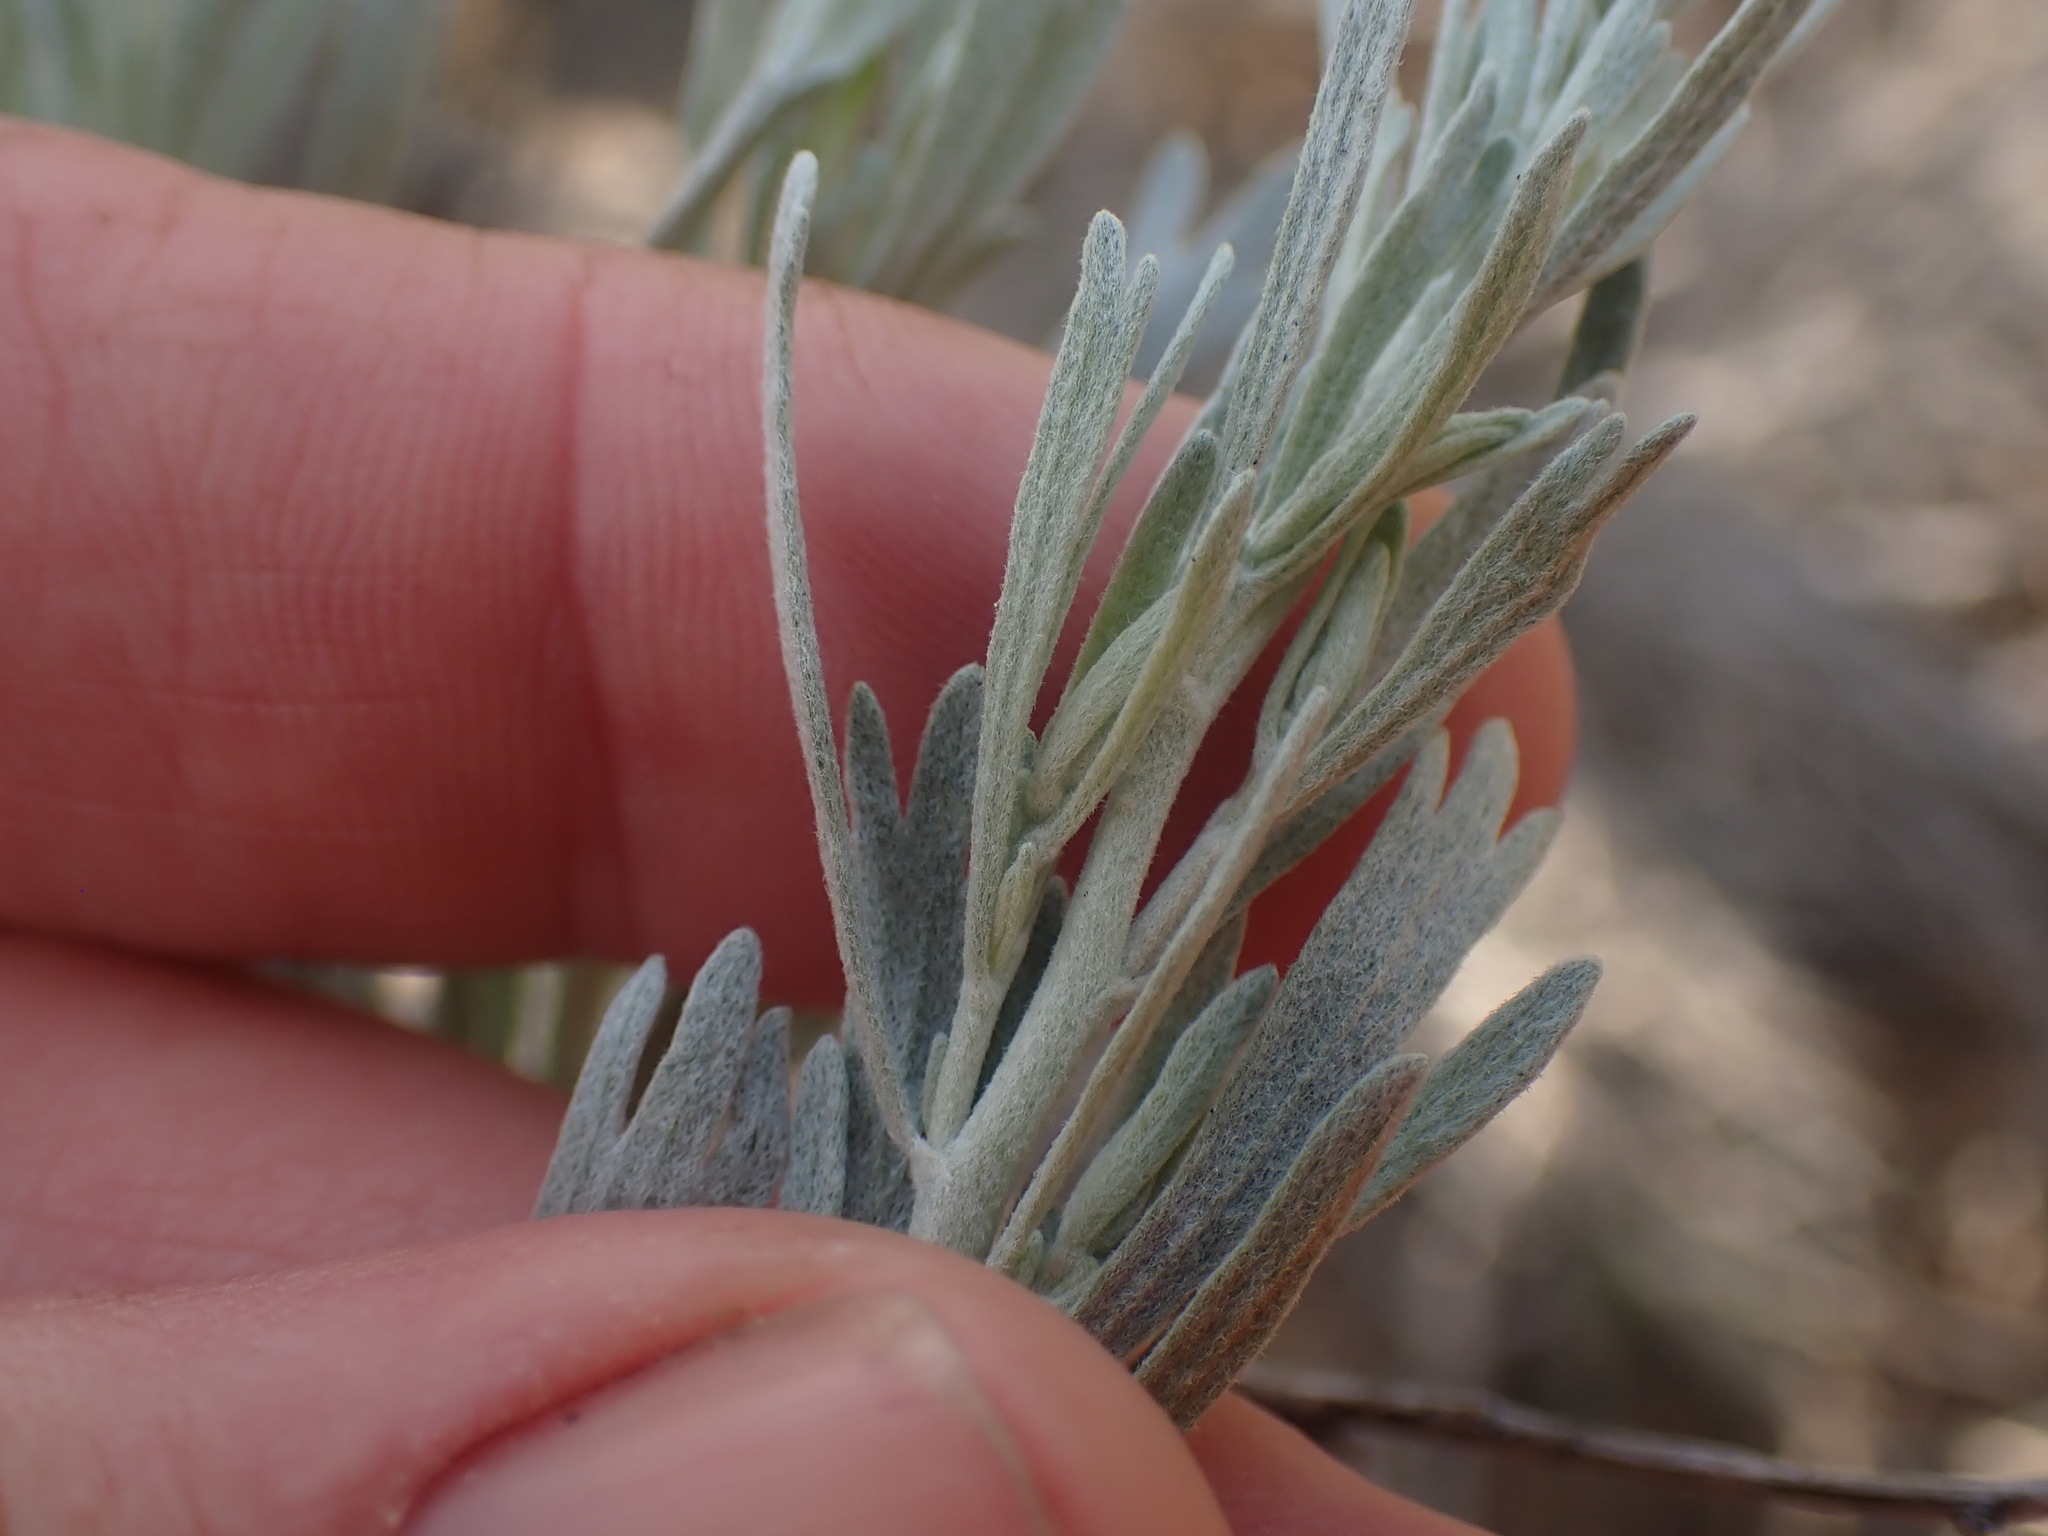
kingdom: Plantae
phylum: Tracheophyta
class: Magnoliopsida
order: Asterales
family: Asteraceae
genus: Artemisia
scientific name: Artemisia tripartita
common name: Three-tip sagebrush
